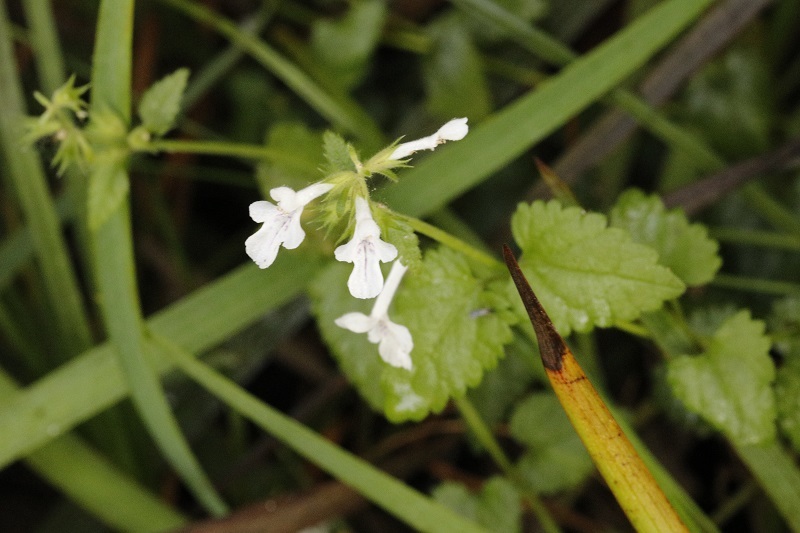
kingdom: Plantae
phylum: Tracheophyta
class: Magnoliopsida
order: Lamiales
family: Lamiaceae
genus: Stachys
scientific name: Stachys aethiopica
